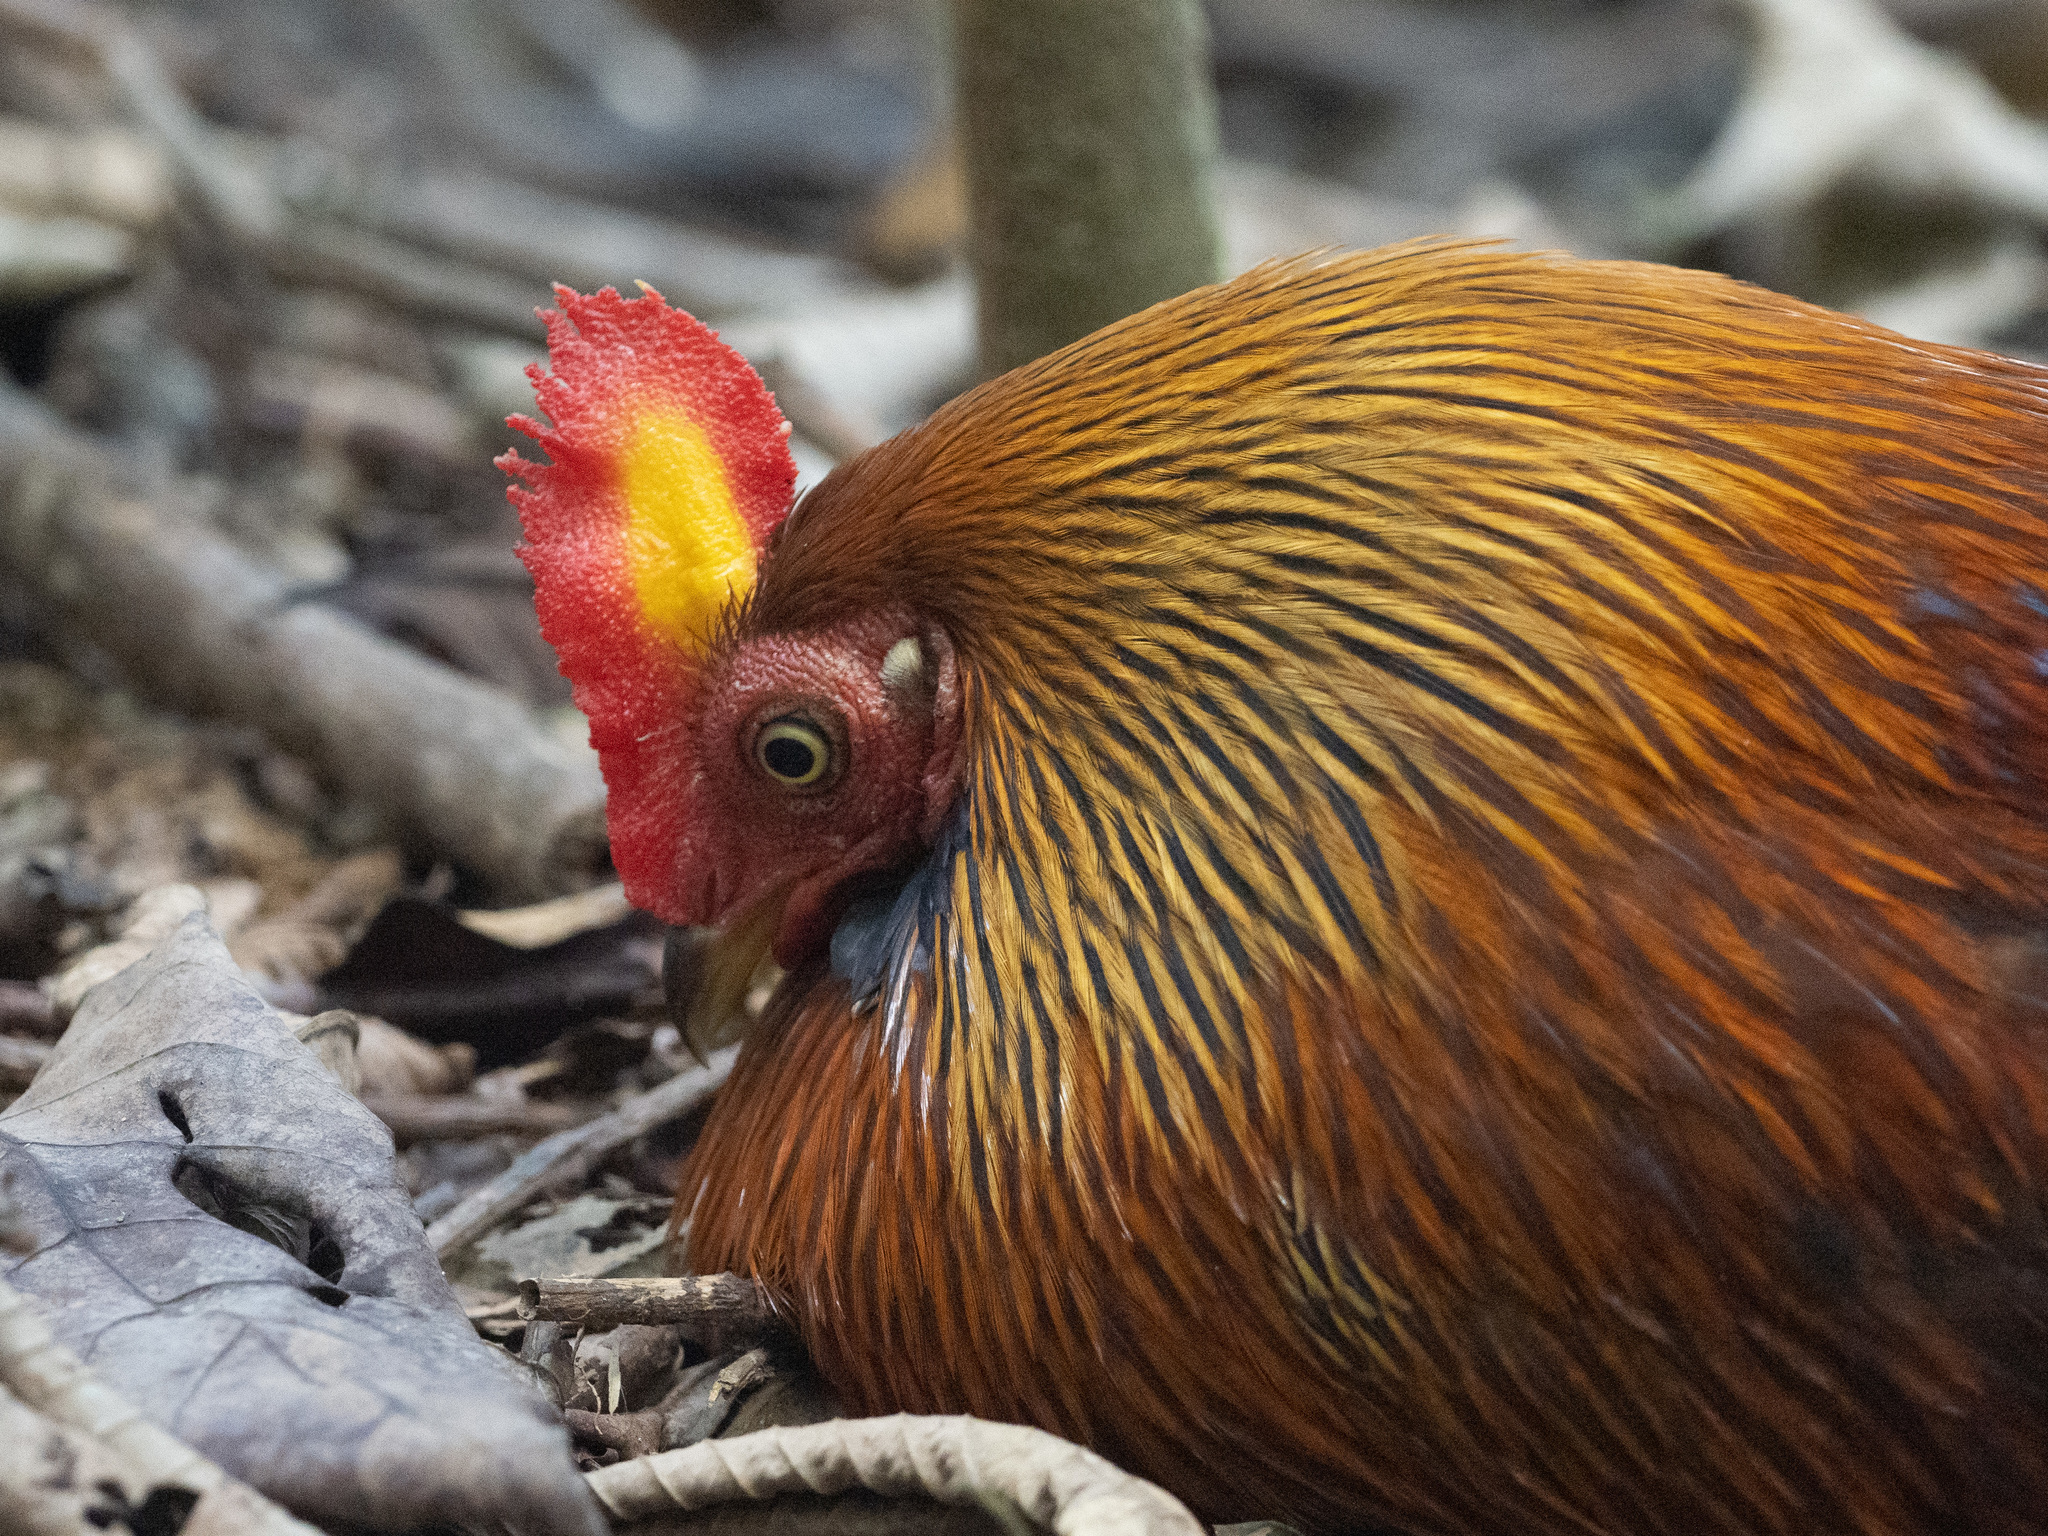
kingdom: Animalia
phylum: Chordata
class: Aves
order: Galliformes
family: Phasianidae
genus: Gallus
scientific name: Gallus lafayettii
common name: Sri lanka junglefowl
